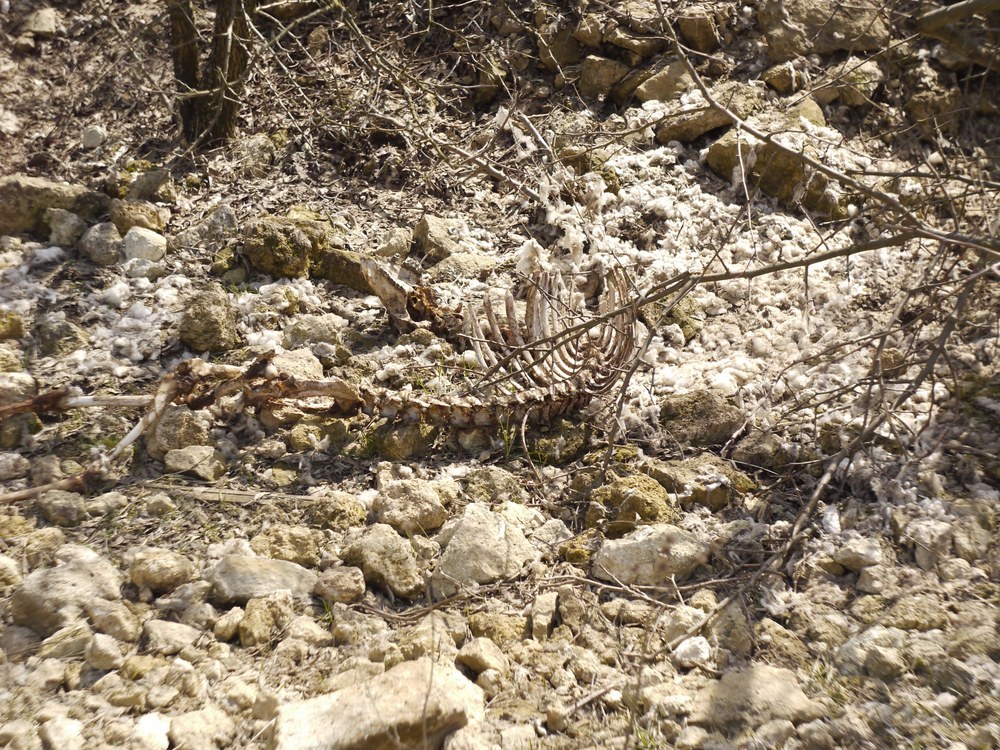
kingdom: Animalia
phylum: Chordata
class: Mammalia
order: Artiodactyla
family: Bovidae
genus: Ovis
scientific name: Ovis aries
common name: Domestic sheep
